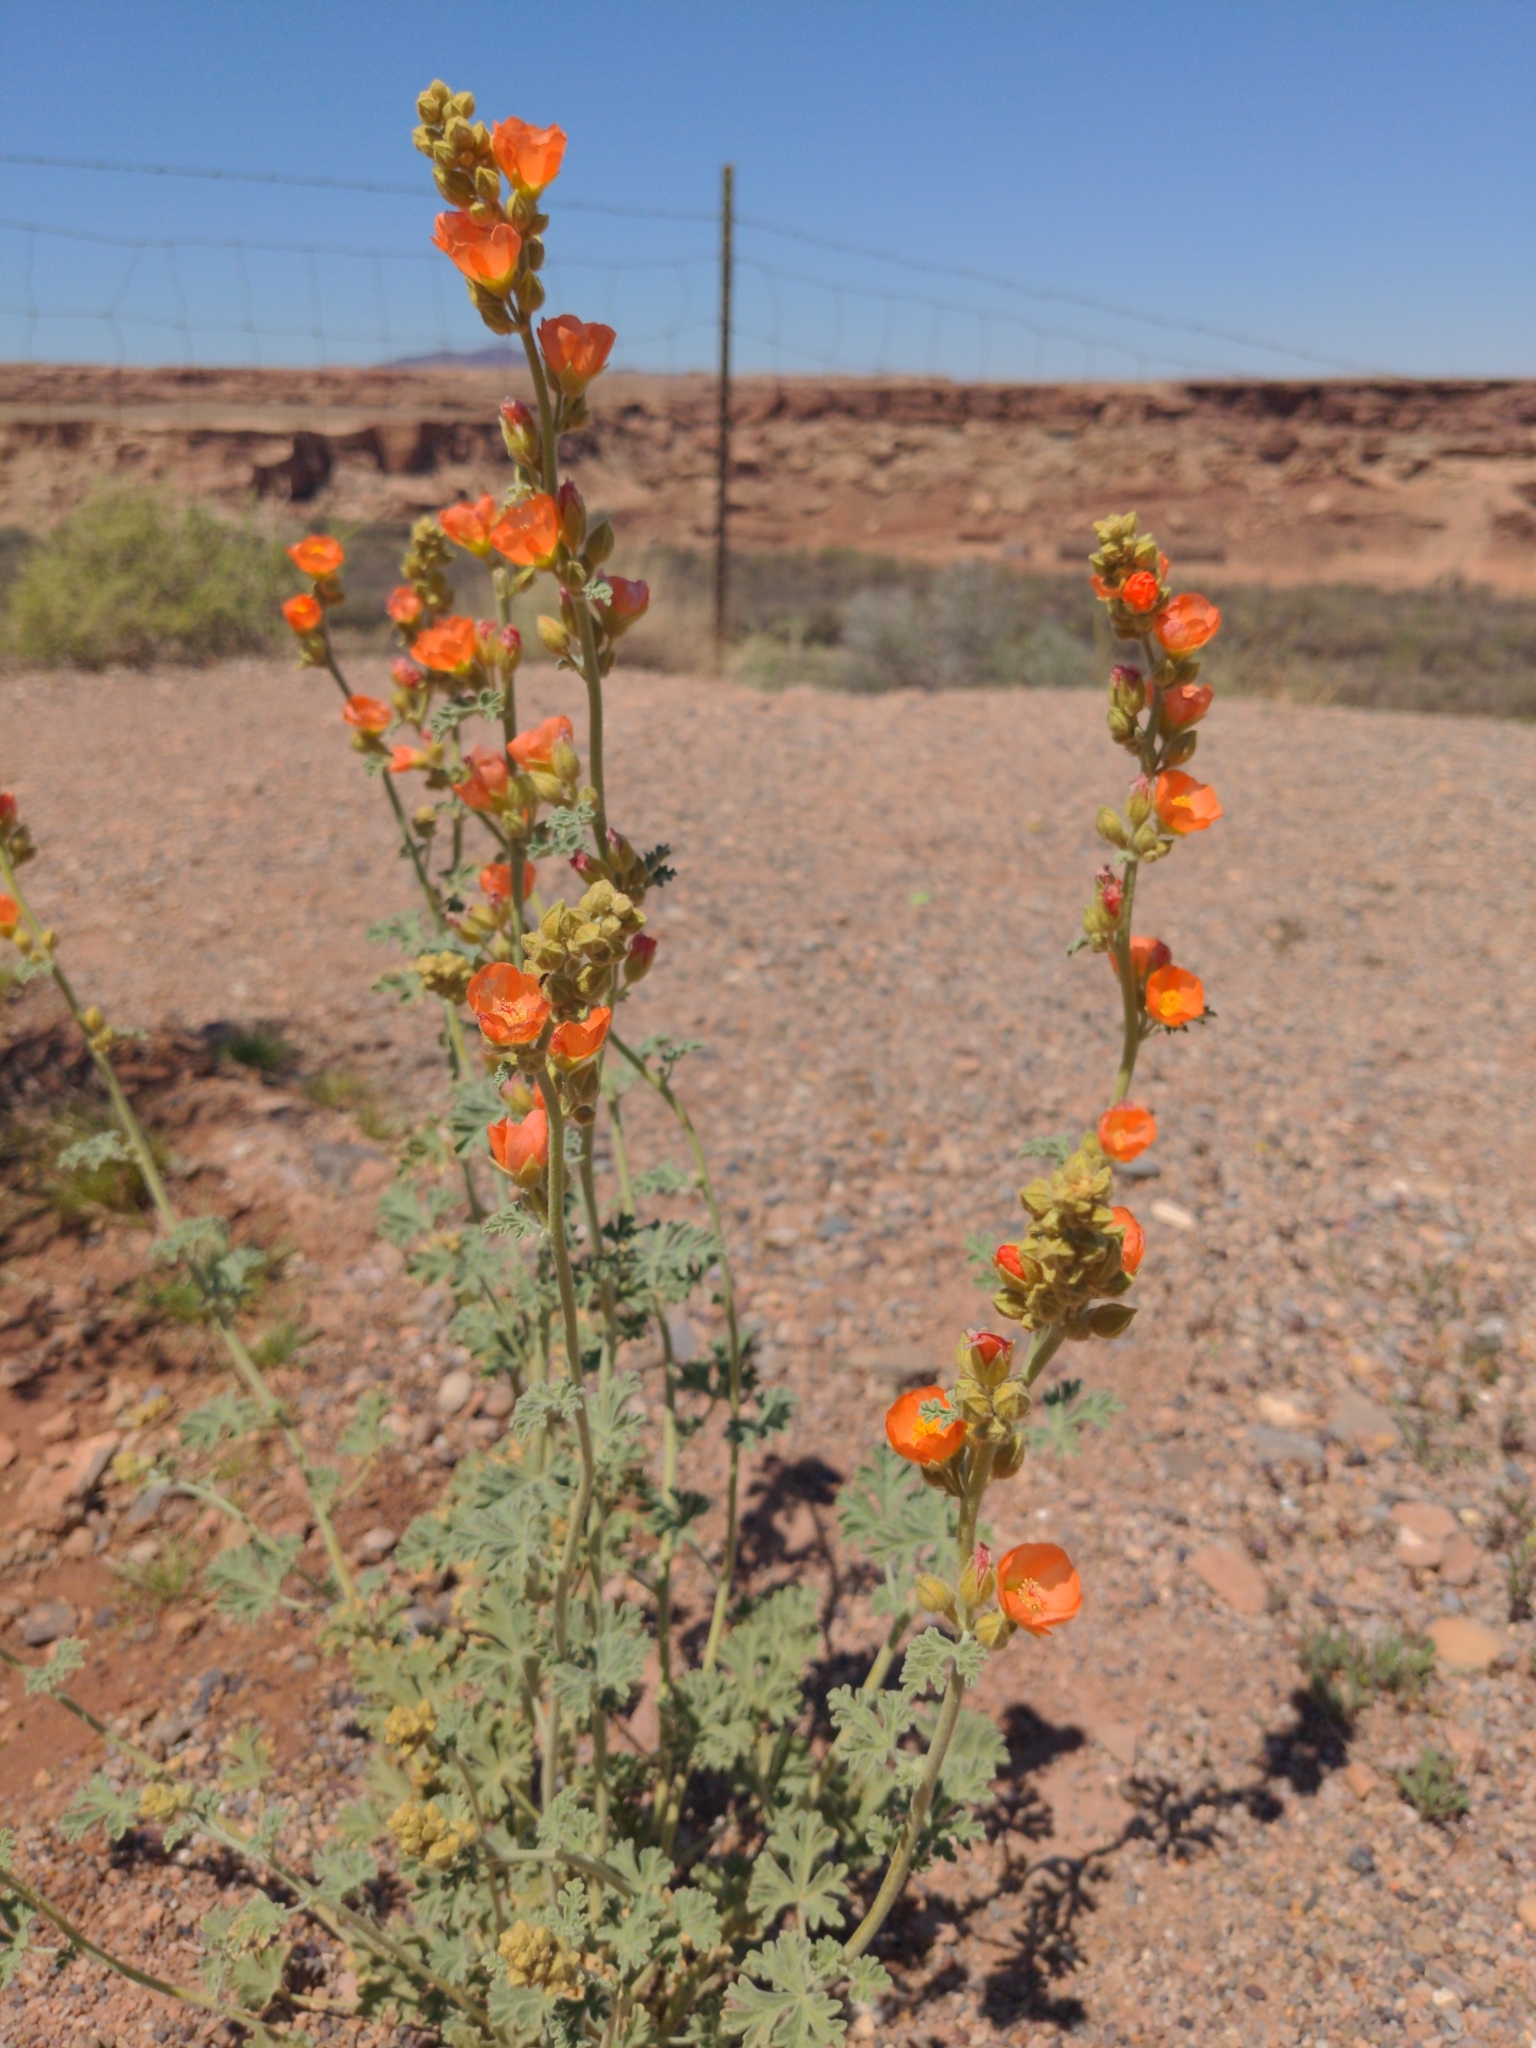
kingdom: Plantae
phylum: Tracheophyta
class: Magnoliopsida
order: Malvales
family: Malvaceae
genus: Sphaeralcea
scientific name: Sphaeralcea ambigua
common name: Apricot globe-mallow
